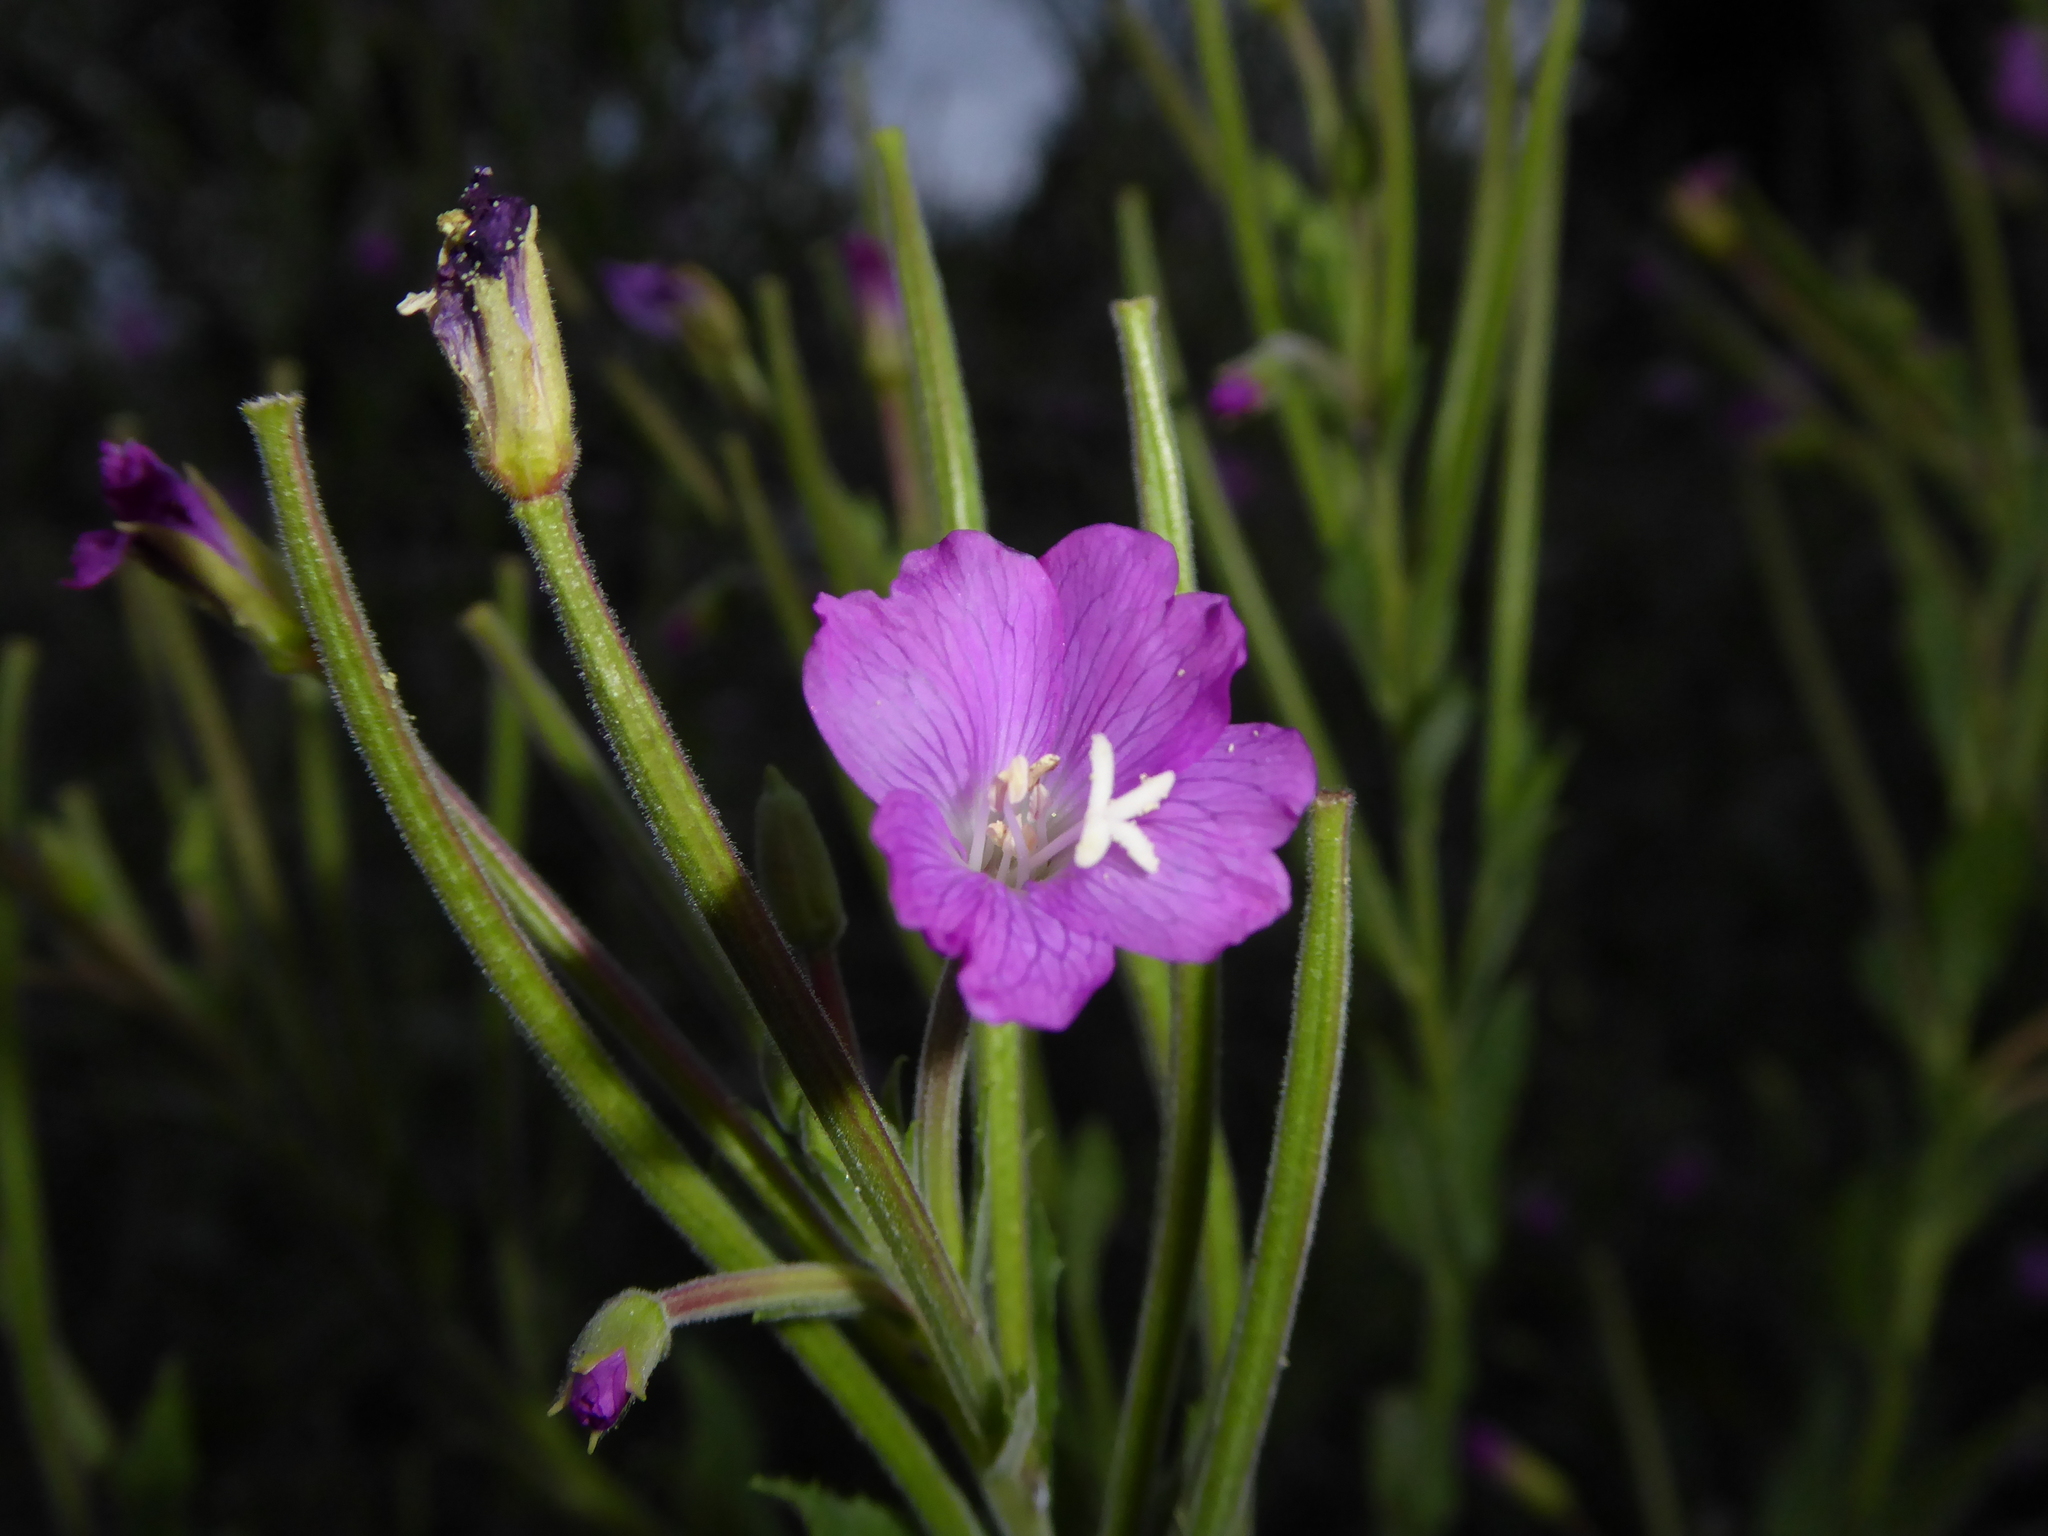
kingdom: Plantae
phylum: Tracheophyta
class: Magnoliopsida
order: Myrtales
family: Onagraceae
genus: Epilobium
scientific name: Epilobium hirsutum
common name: Great willowherb
